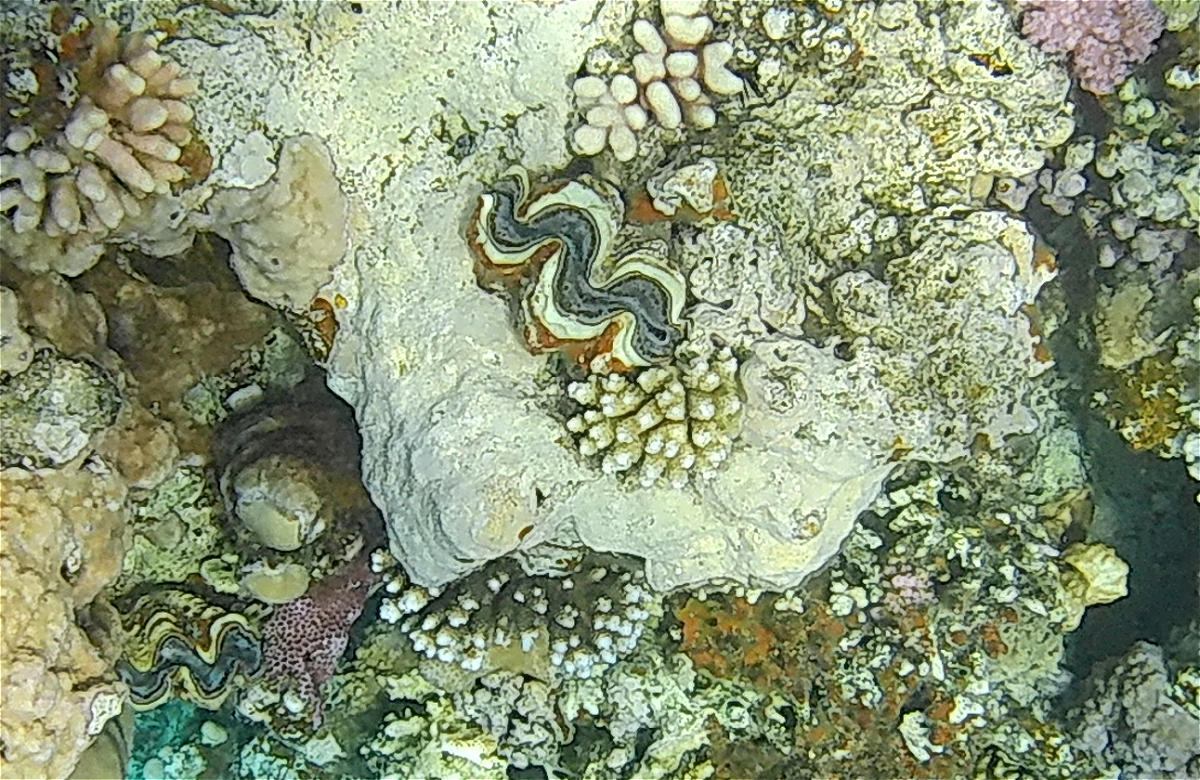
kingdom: Animalia
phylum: Mollusca
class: Bivalvia
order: Cardiida
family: Cardiidae
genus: Tridacna
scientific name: Tridacna maxima
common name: Small giant clam
